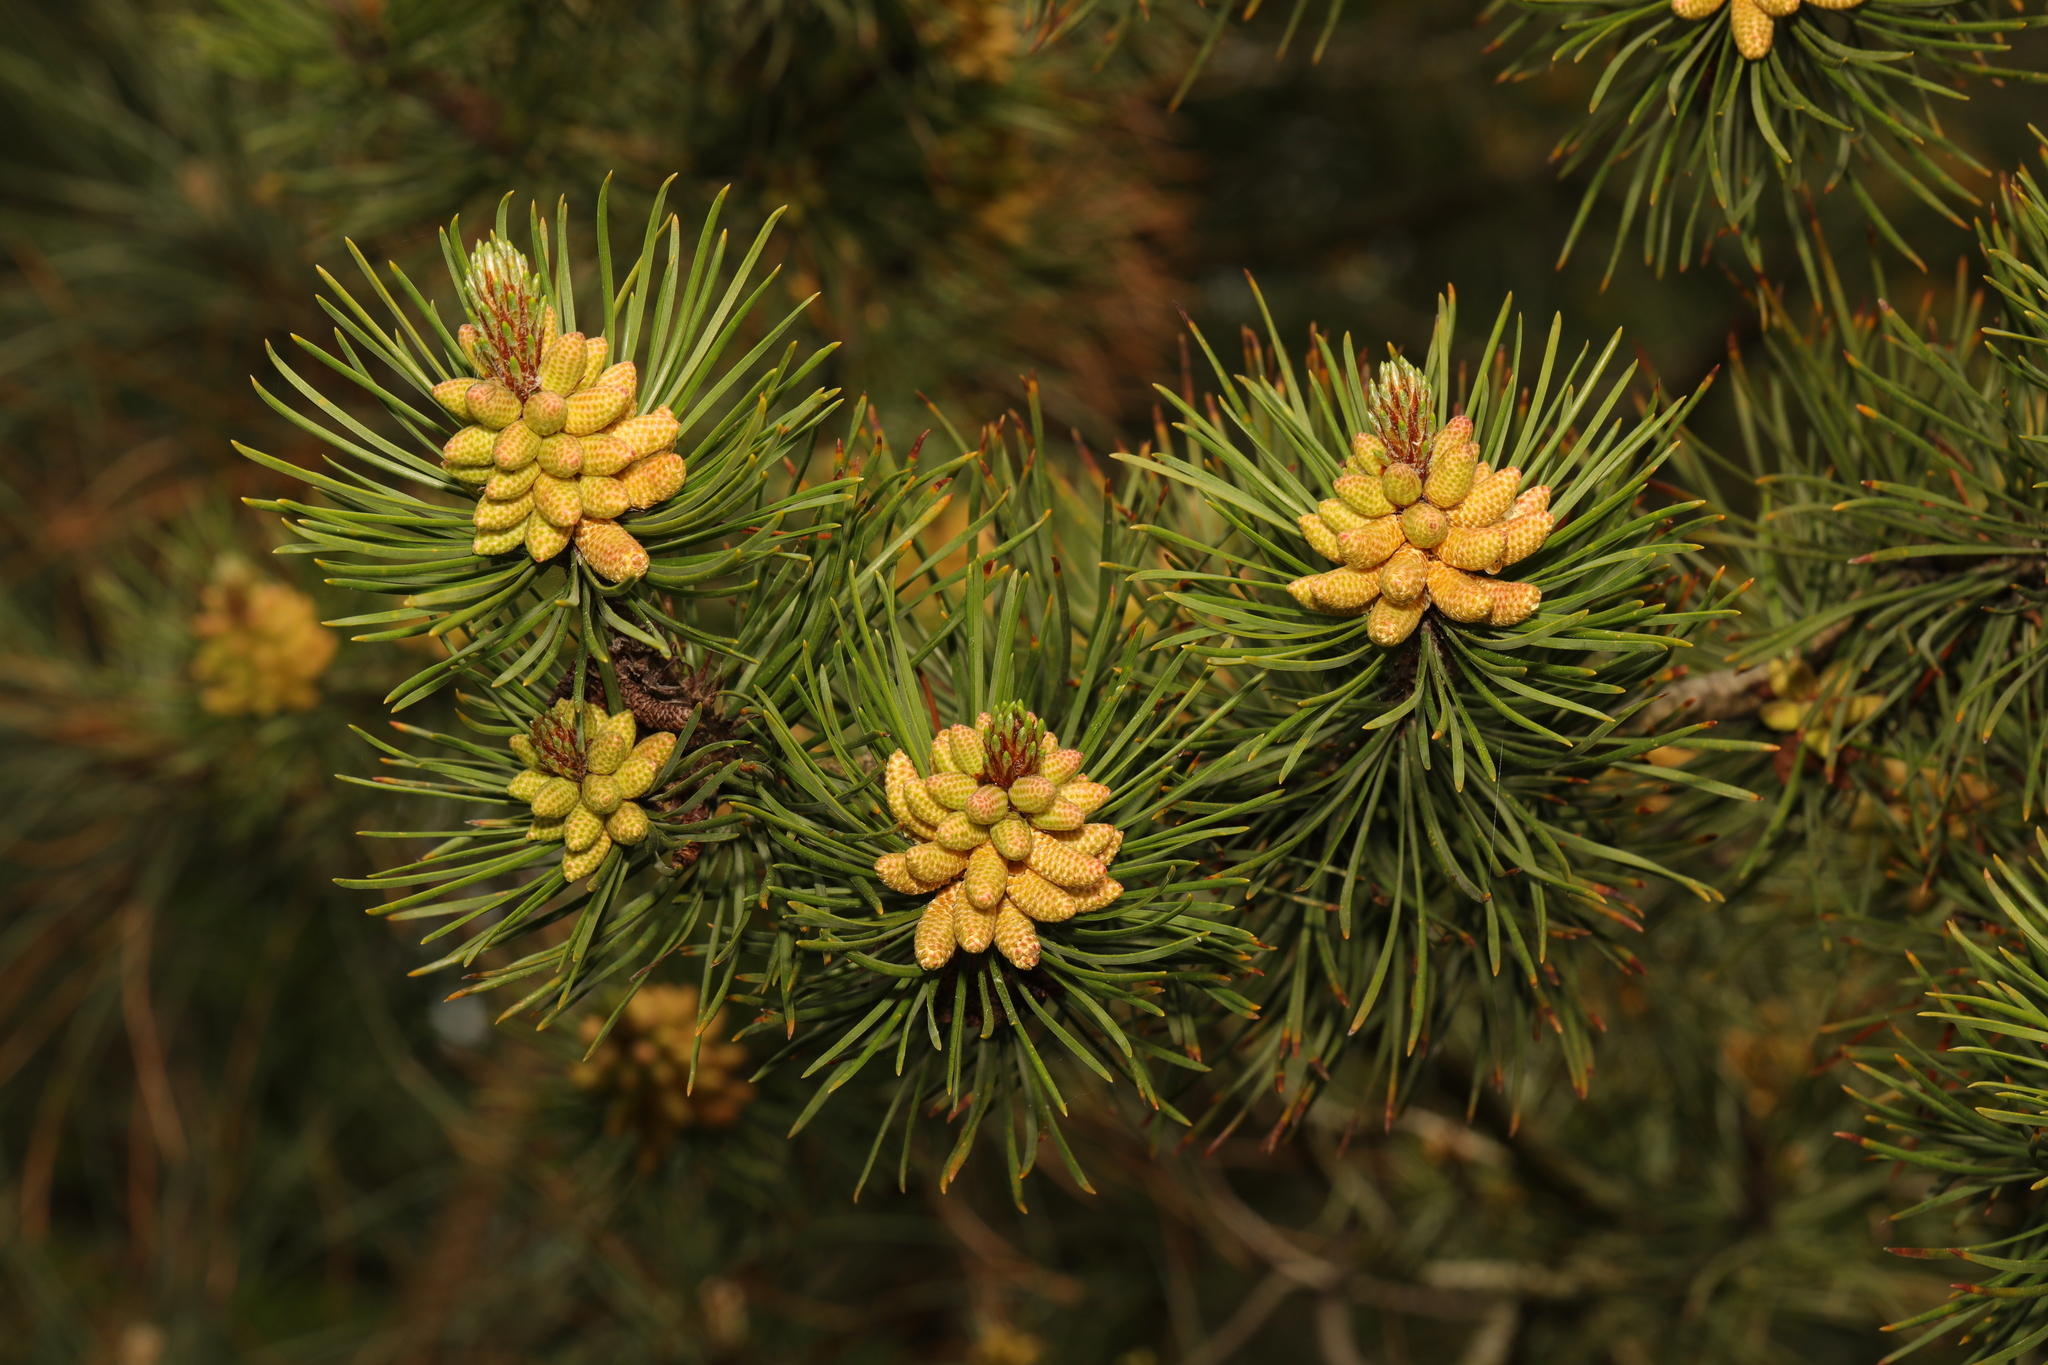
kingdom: Plantae
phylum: Tracheophyta
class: Pinopsida
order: Pinales
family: Pinaceae
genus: Pinus
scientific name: Pinus sylvestris
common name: Scots pine
